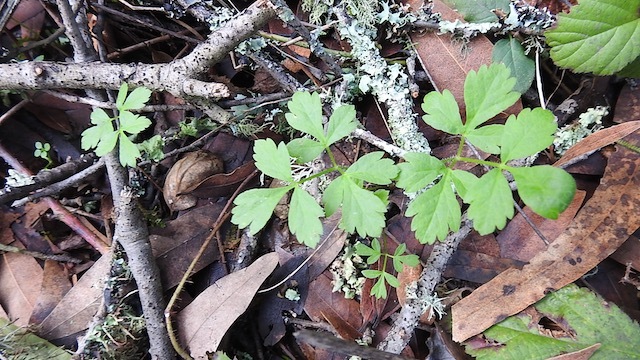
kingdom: Plantae
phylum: Tracheophyta
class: Magnoliopsida
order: Apiales
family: Apiaceae
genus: Osmorhiza
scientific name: Osmorhiza berteroi
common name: Mountain sweet cicely
